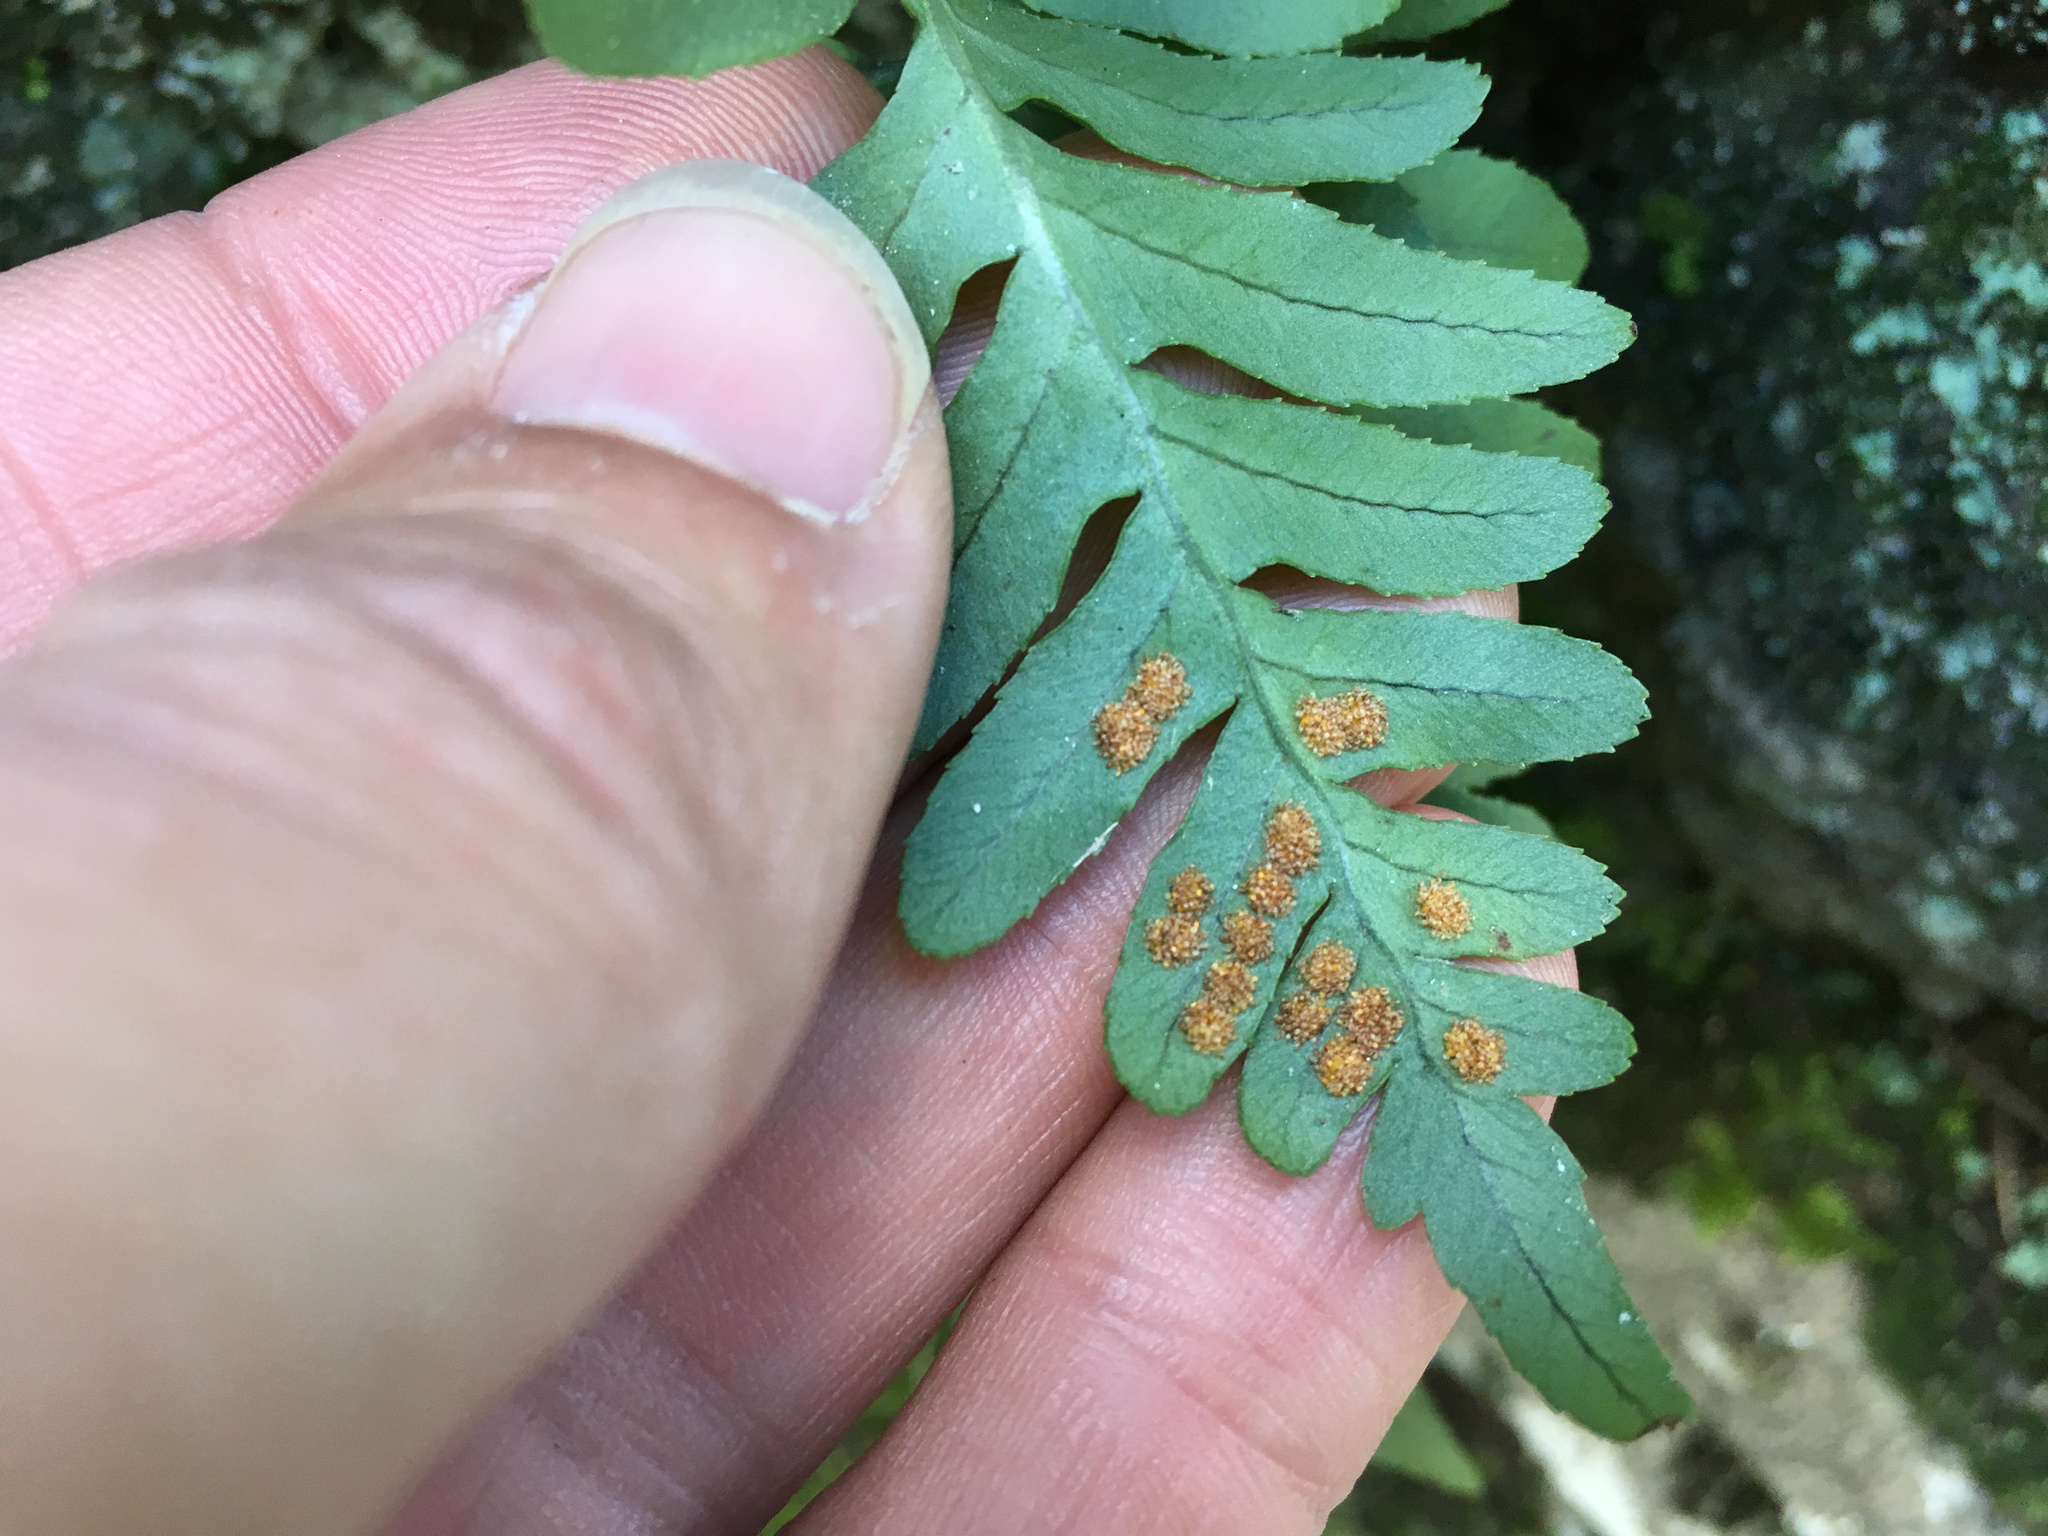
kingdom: Plantae
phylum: Tracheophyta
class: Polypodiopsida
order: Polypodiales
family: Polypodiaceae
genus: Polypodium
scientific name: Polypodium vulgare
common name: Common polypody
